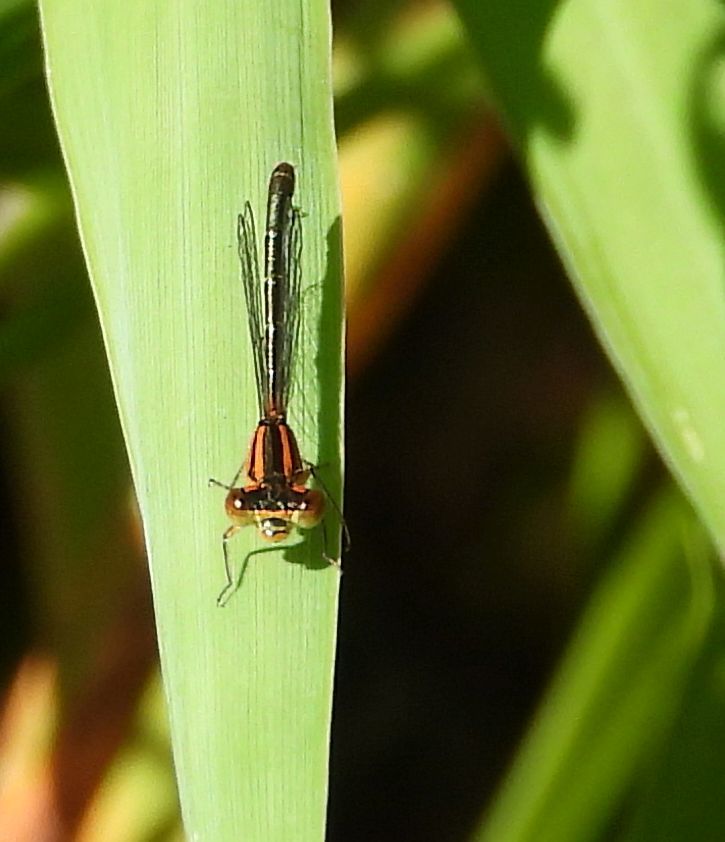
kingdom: Animalia
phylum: Arthropoda
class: Insecta
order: Odonata
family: Coenagrionidae
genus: Ischnura
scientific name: Ischnura verticalis
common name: Eastern forktail
